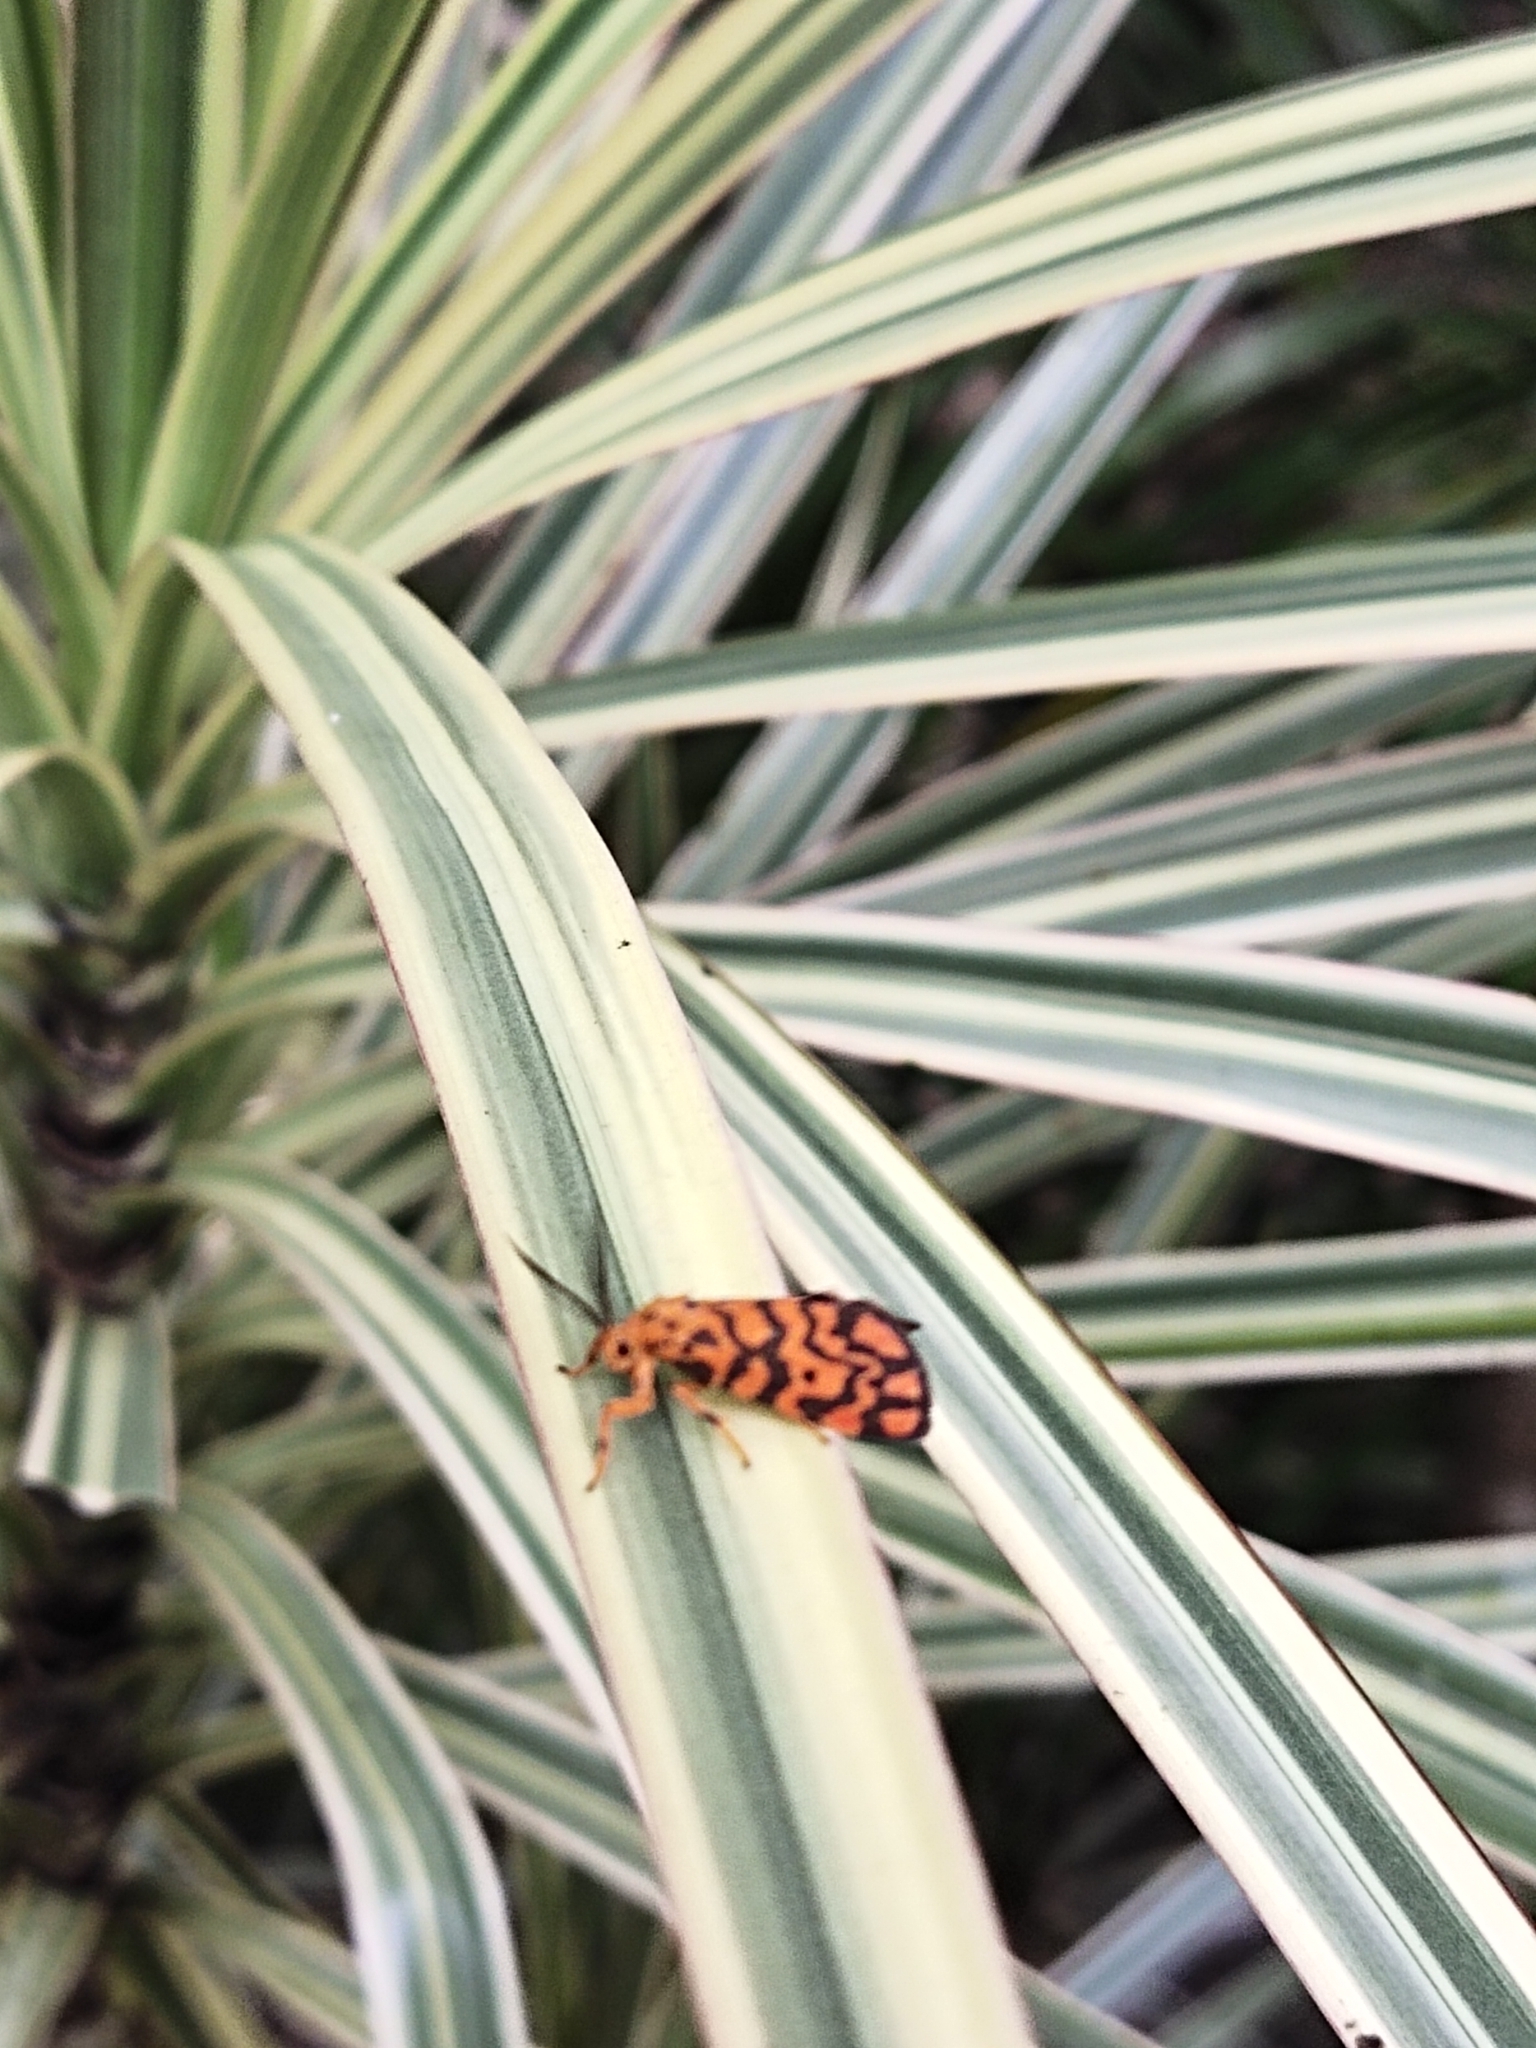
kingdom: Animalia
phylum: Arthropoda
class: Insecta
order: Lepidoptera
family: Erebidae
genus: Nepita
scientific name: Nepita conferta
